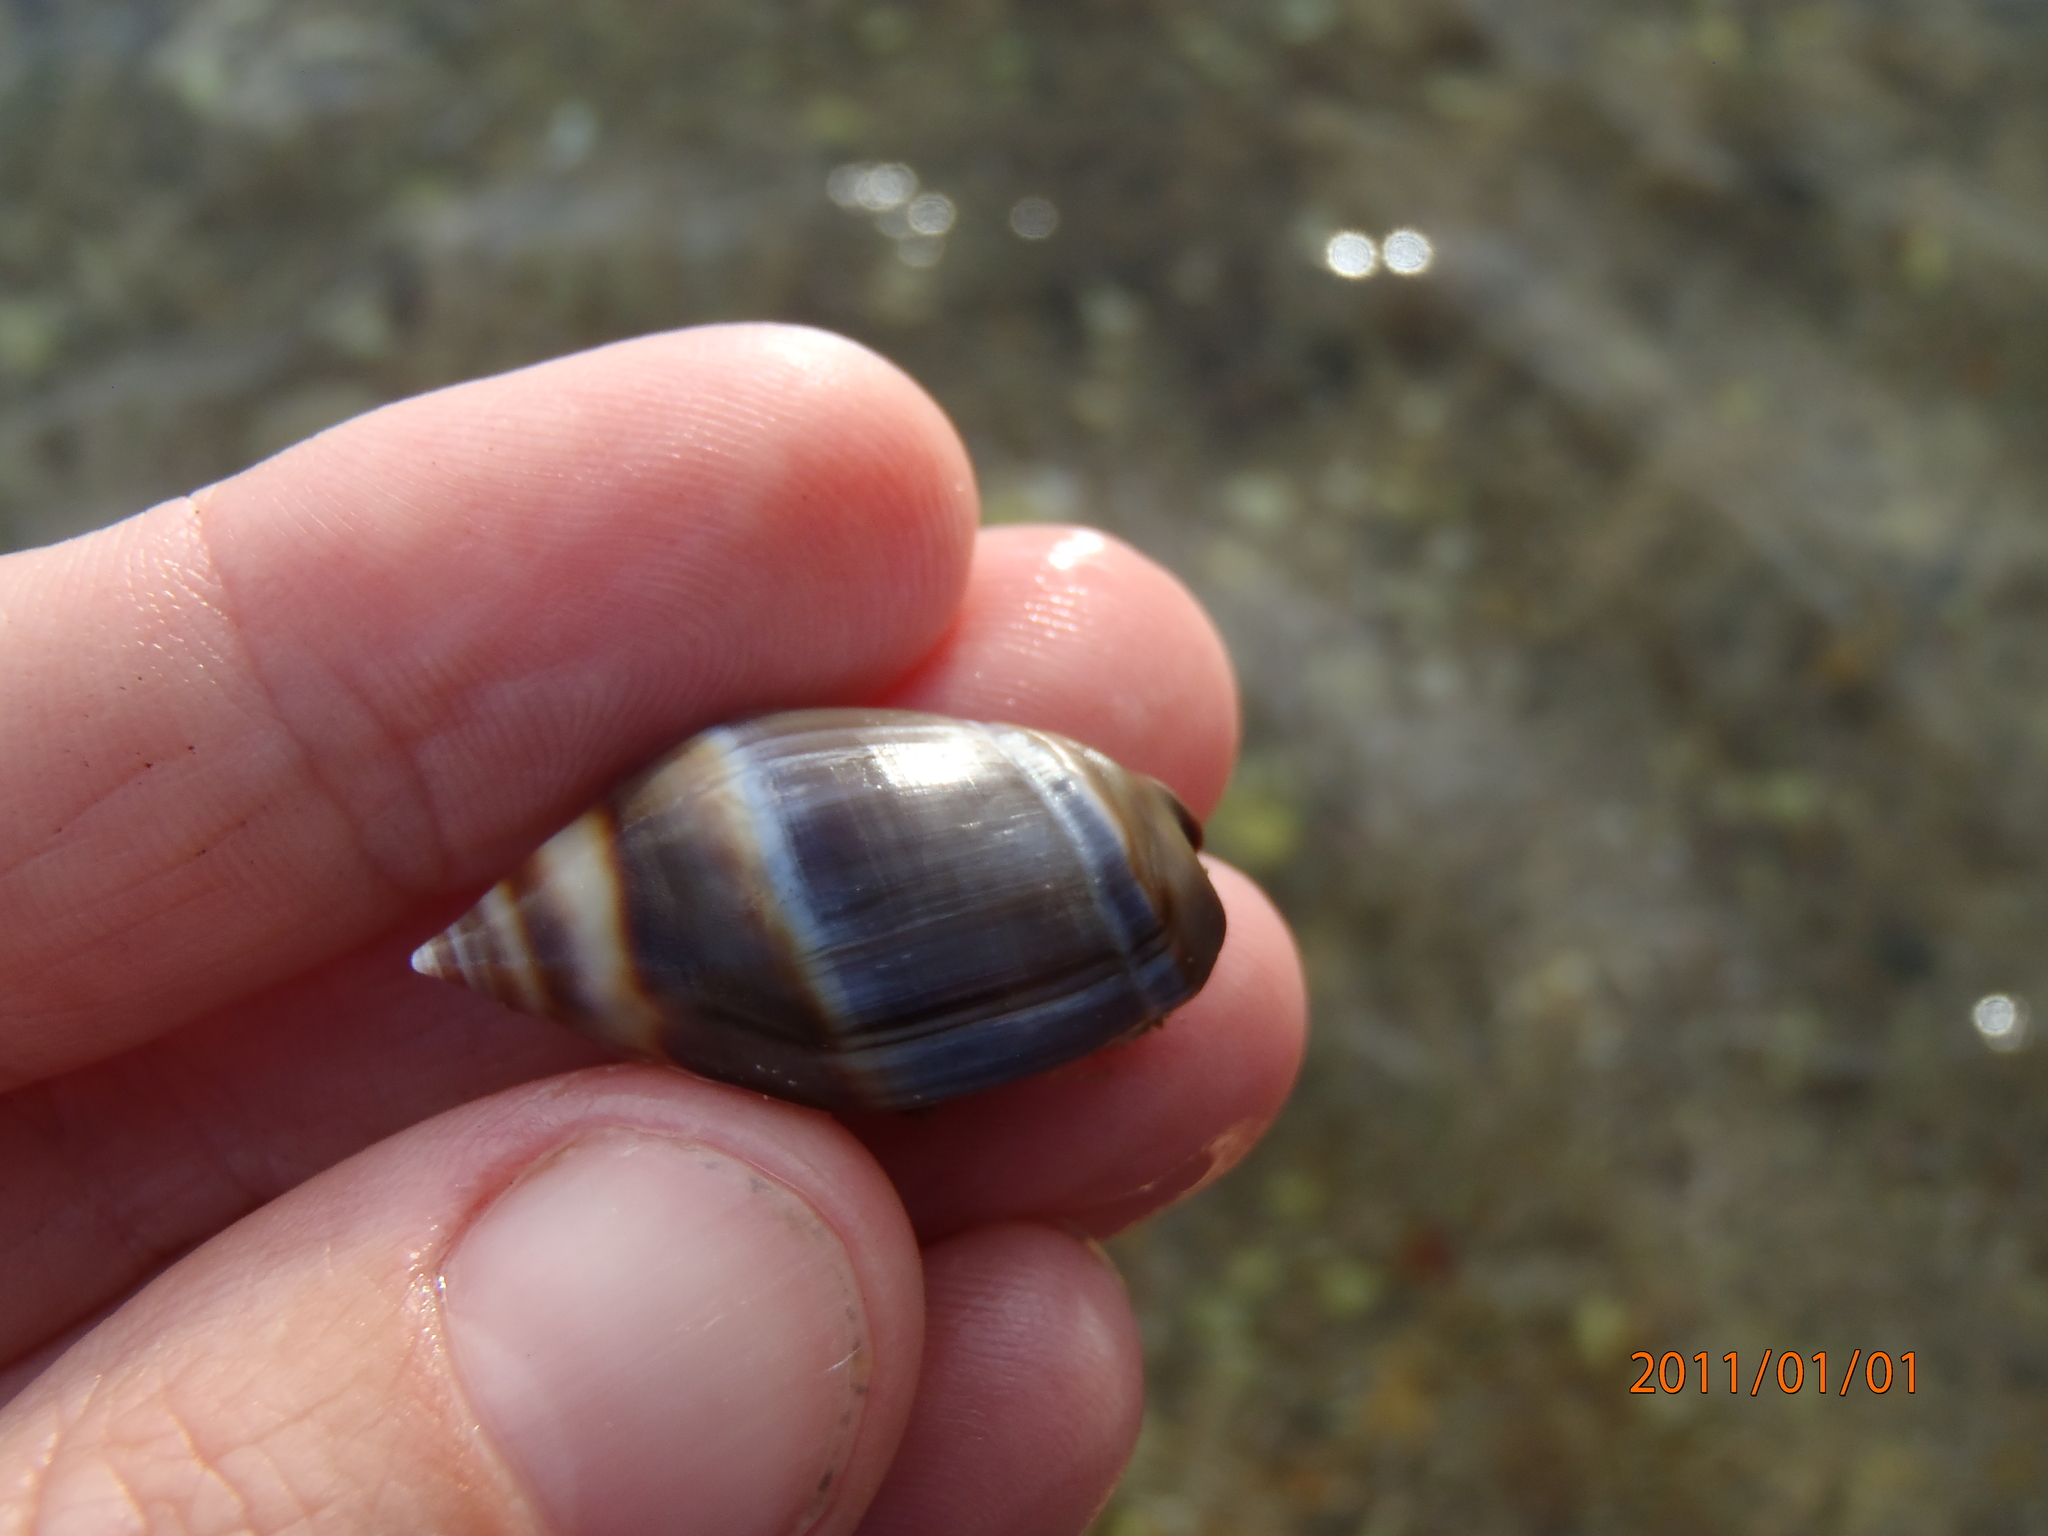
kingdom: Animalia
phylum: Mollusca
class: Gastropoda
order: Neogastropoda
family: Ancillariidae
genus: Amalda
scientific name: Amalda australis
